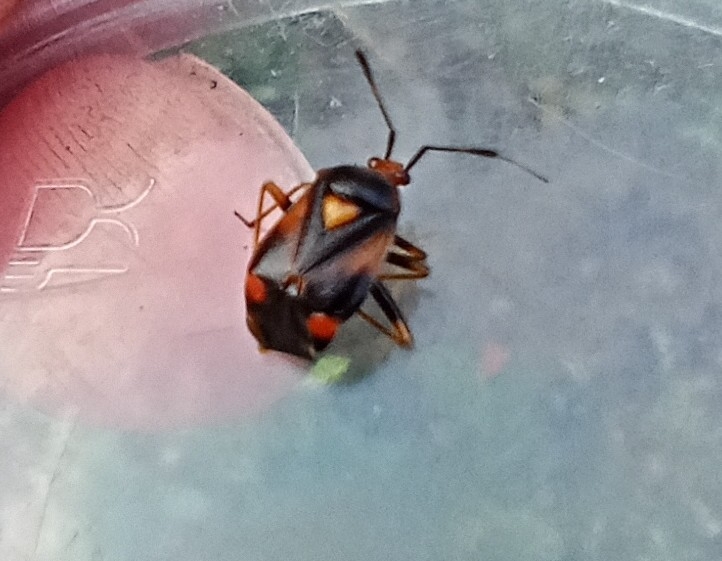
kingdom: Animalia
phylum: Arthropoda
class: Insecta
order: Hemiptera
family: Miridae
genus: Deraeocoris
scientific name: Deraeocoris ruber
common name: Plant bug
